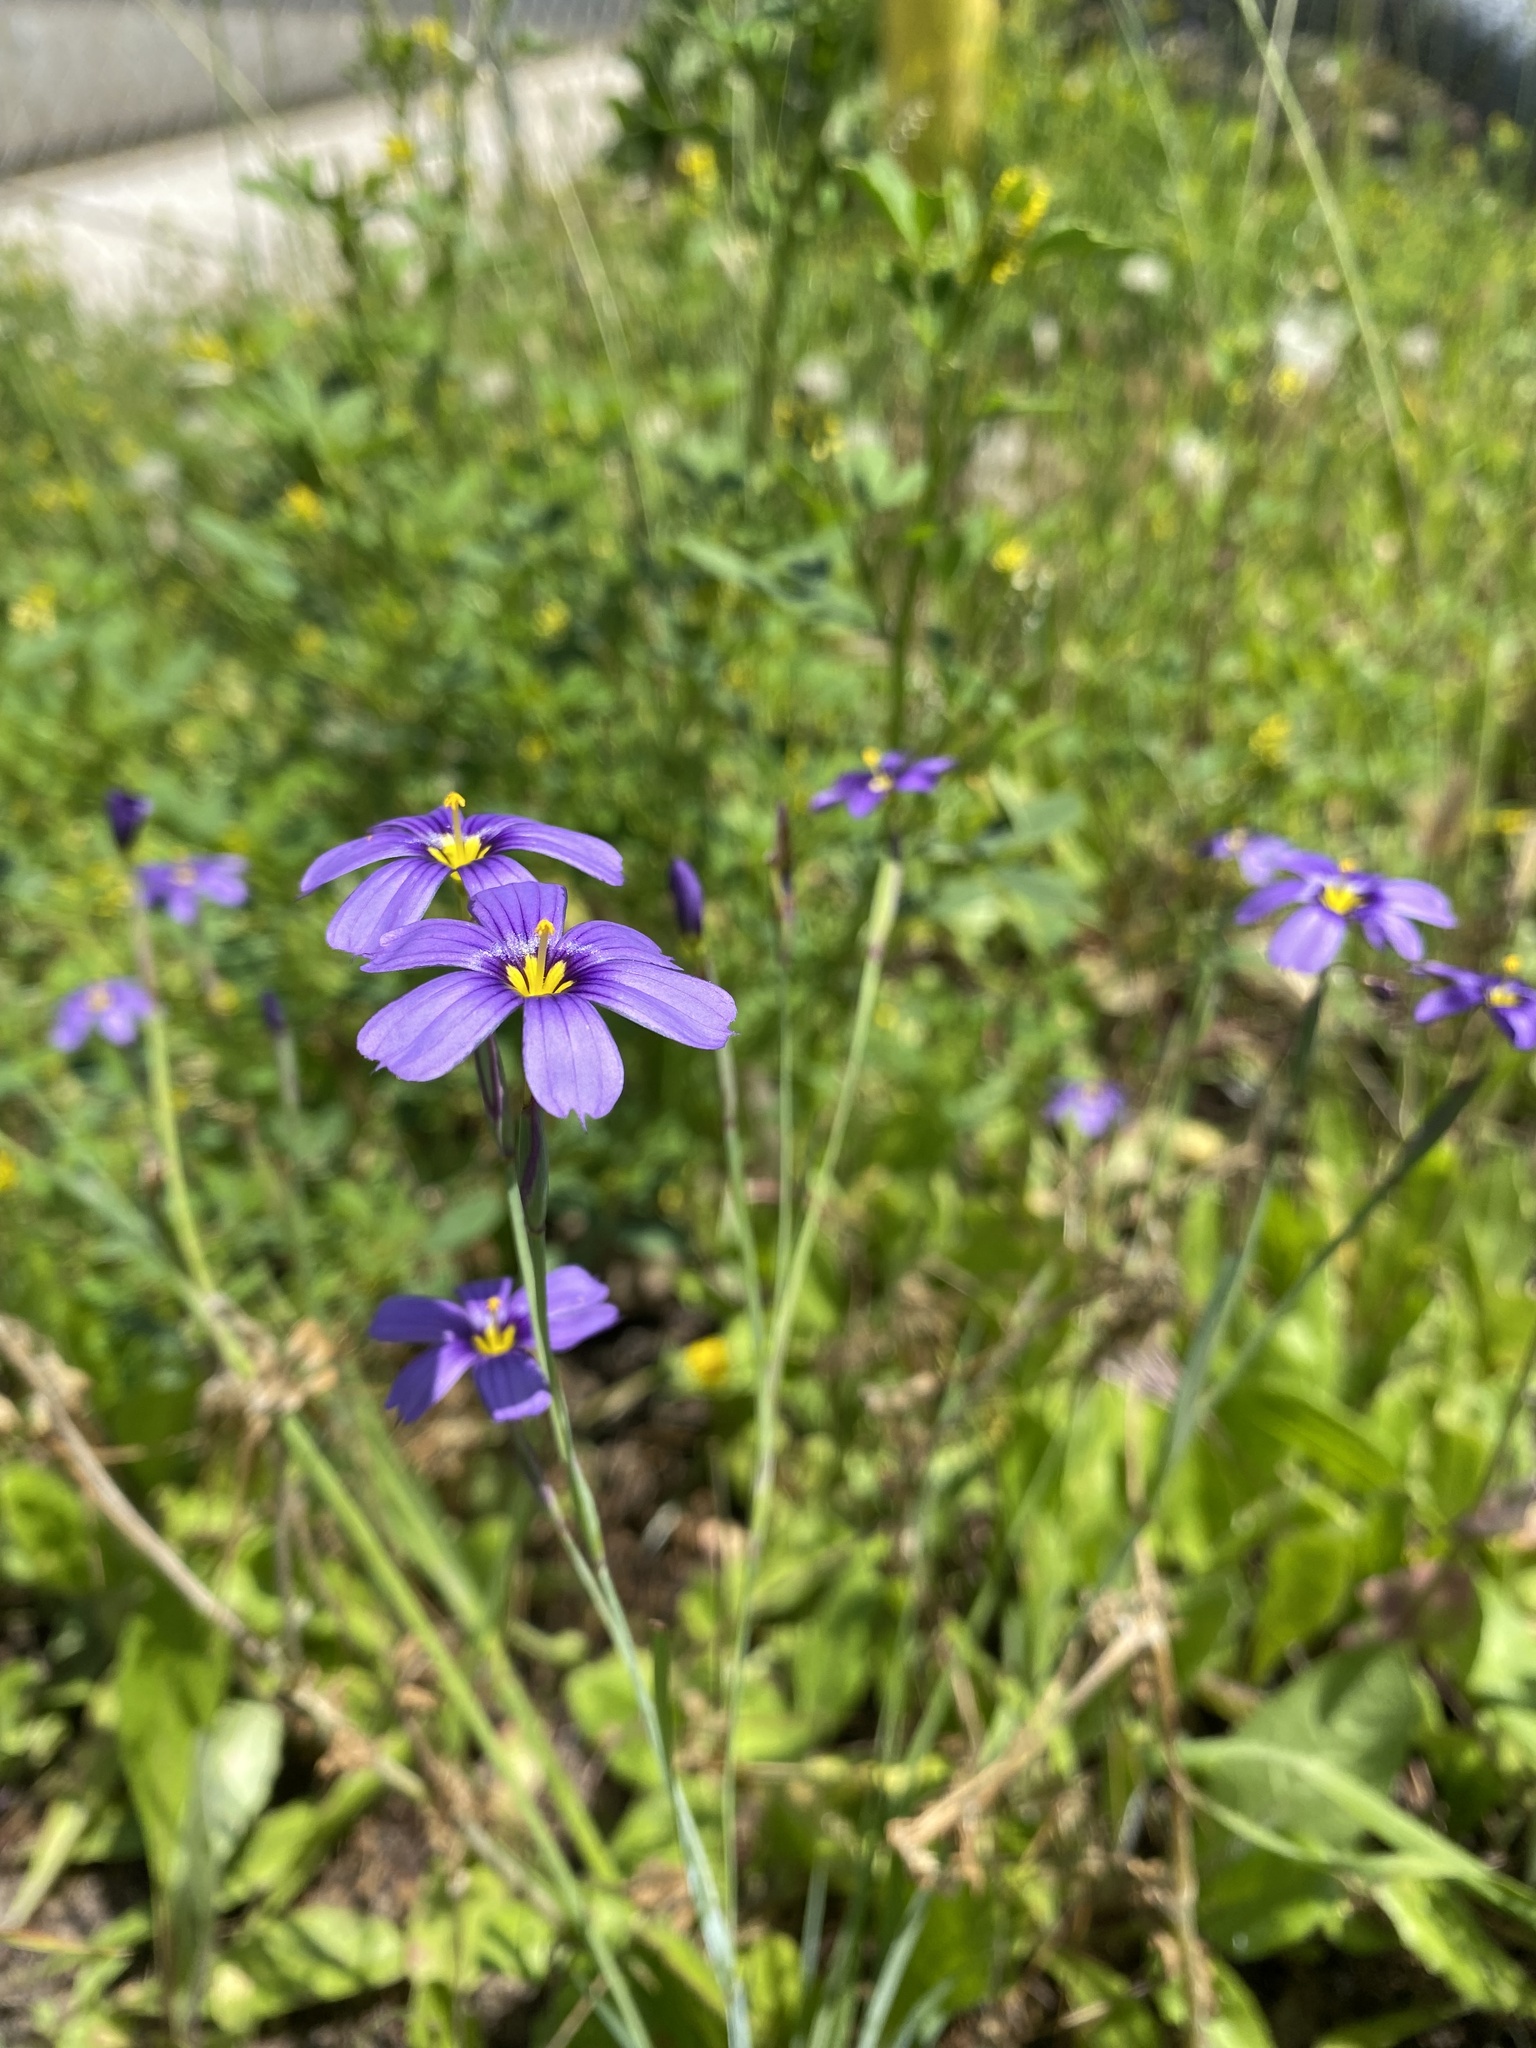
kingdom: Plantae
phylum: Tracheophyta
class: Liliopsida
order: Asparagales
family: Iridaceae
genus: Sisyrinchium
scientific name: Sisyrinchium bellum
